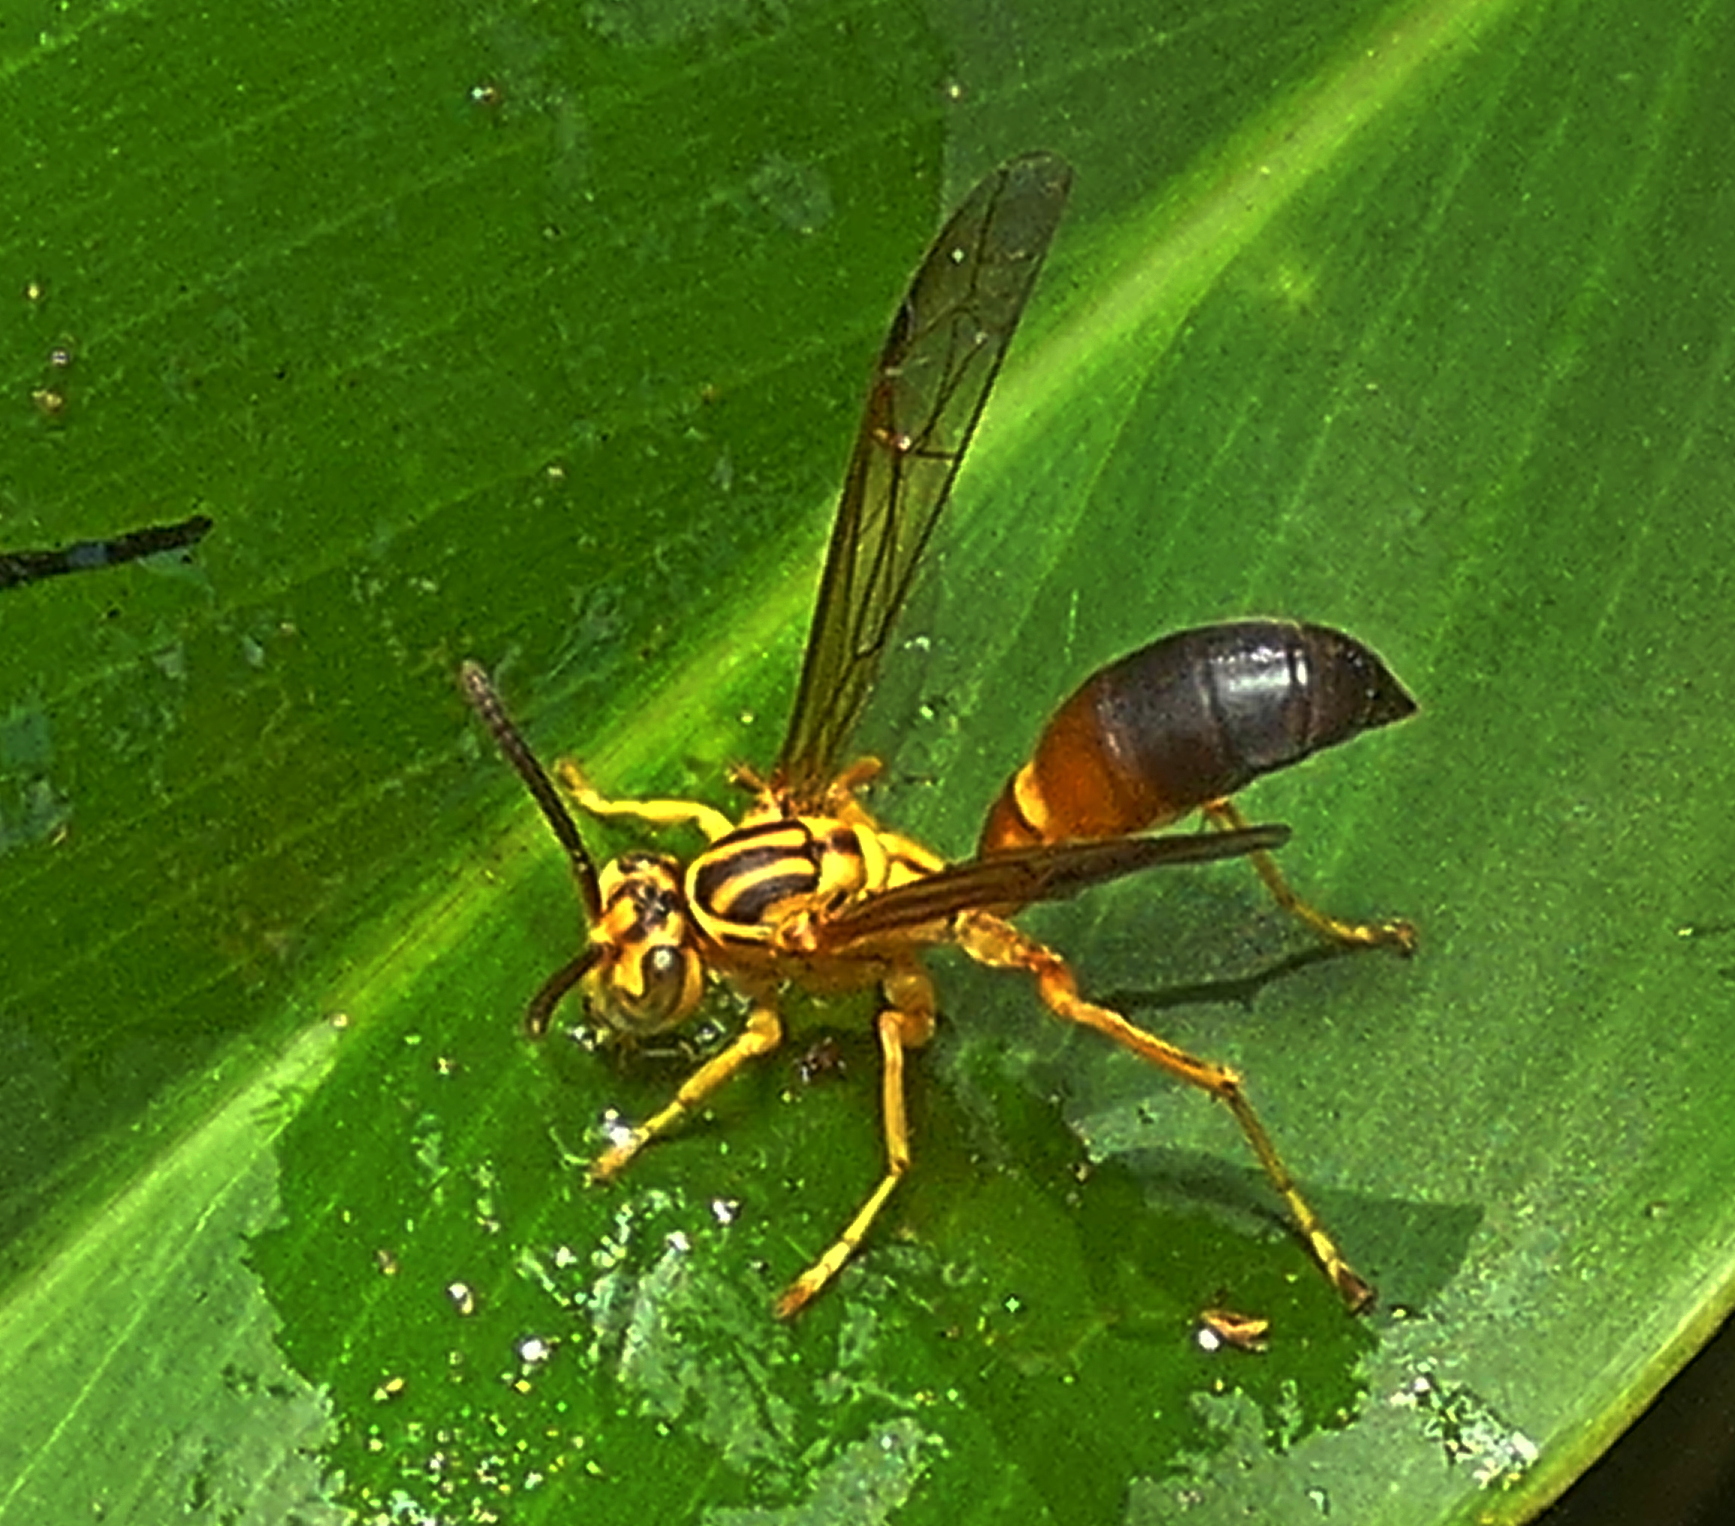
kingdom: Animalia
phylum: Arthropoda
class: Insecta
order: Hymenoptera
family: Vespidae
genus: Agelaia
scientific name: Agelaia pallipes
